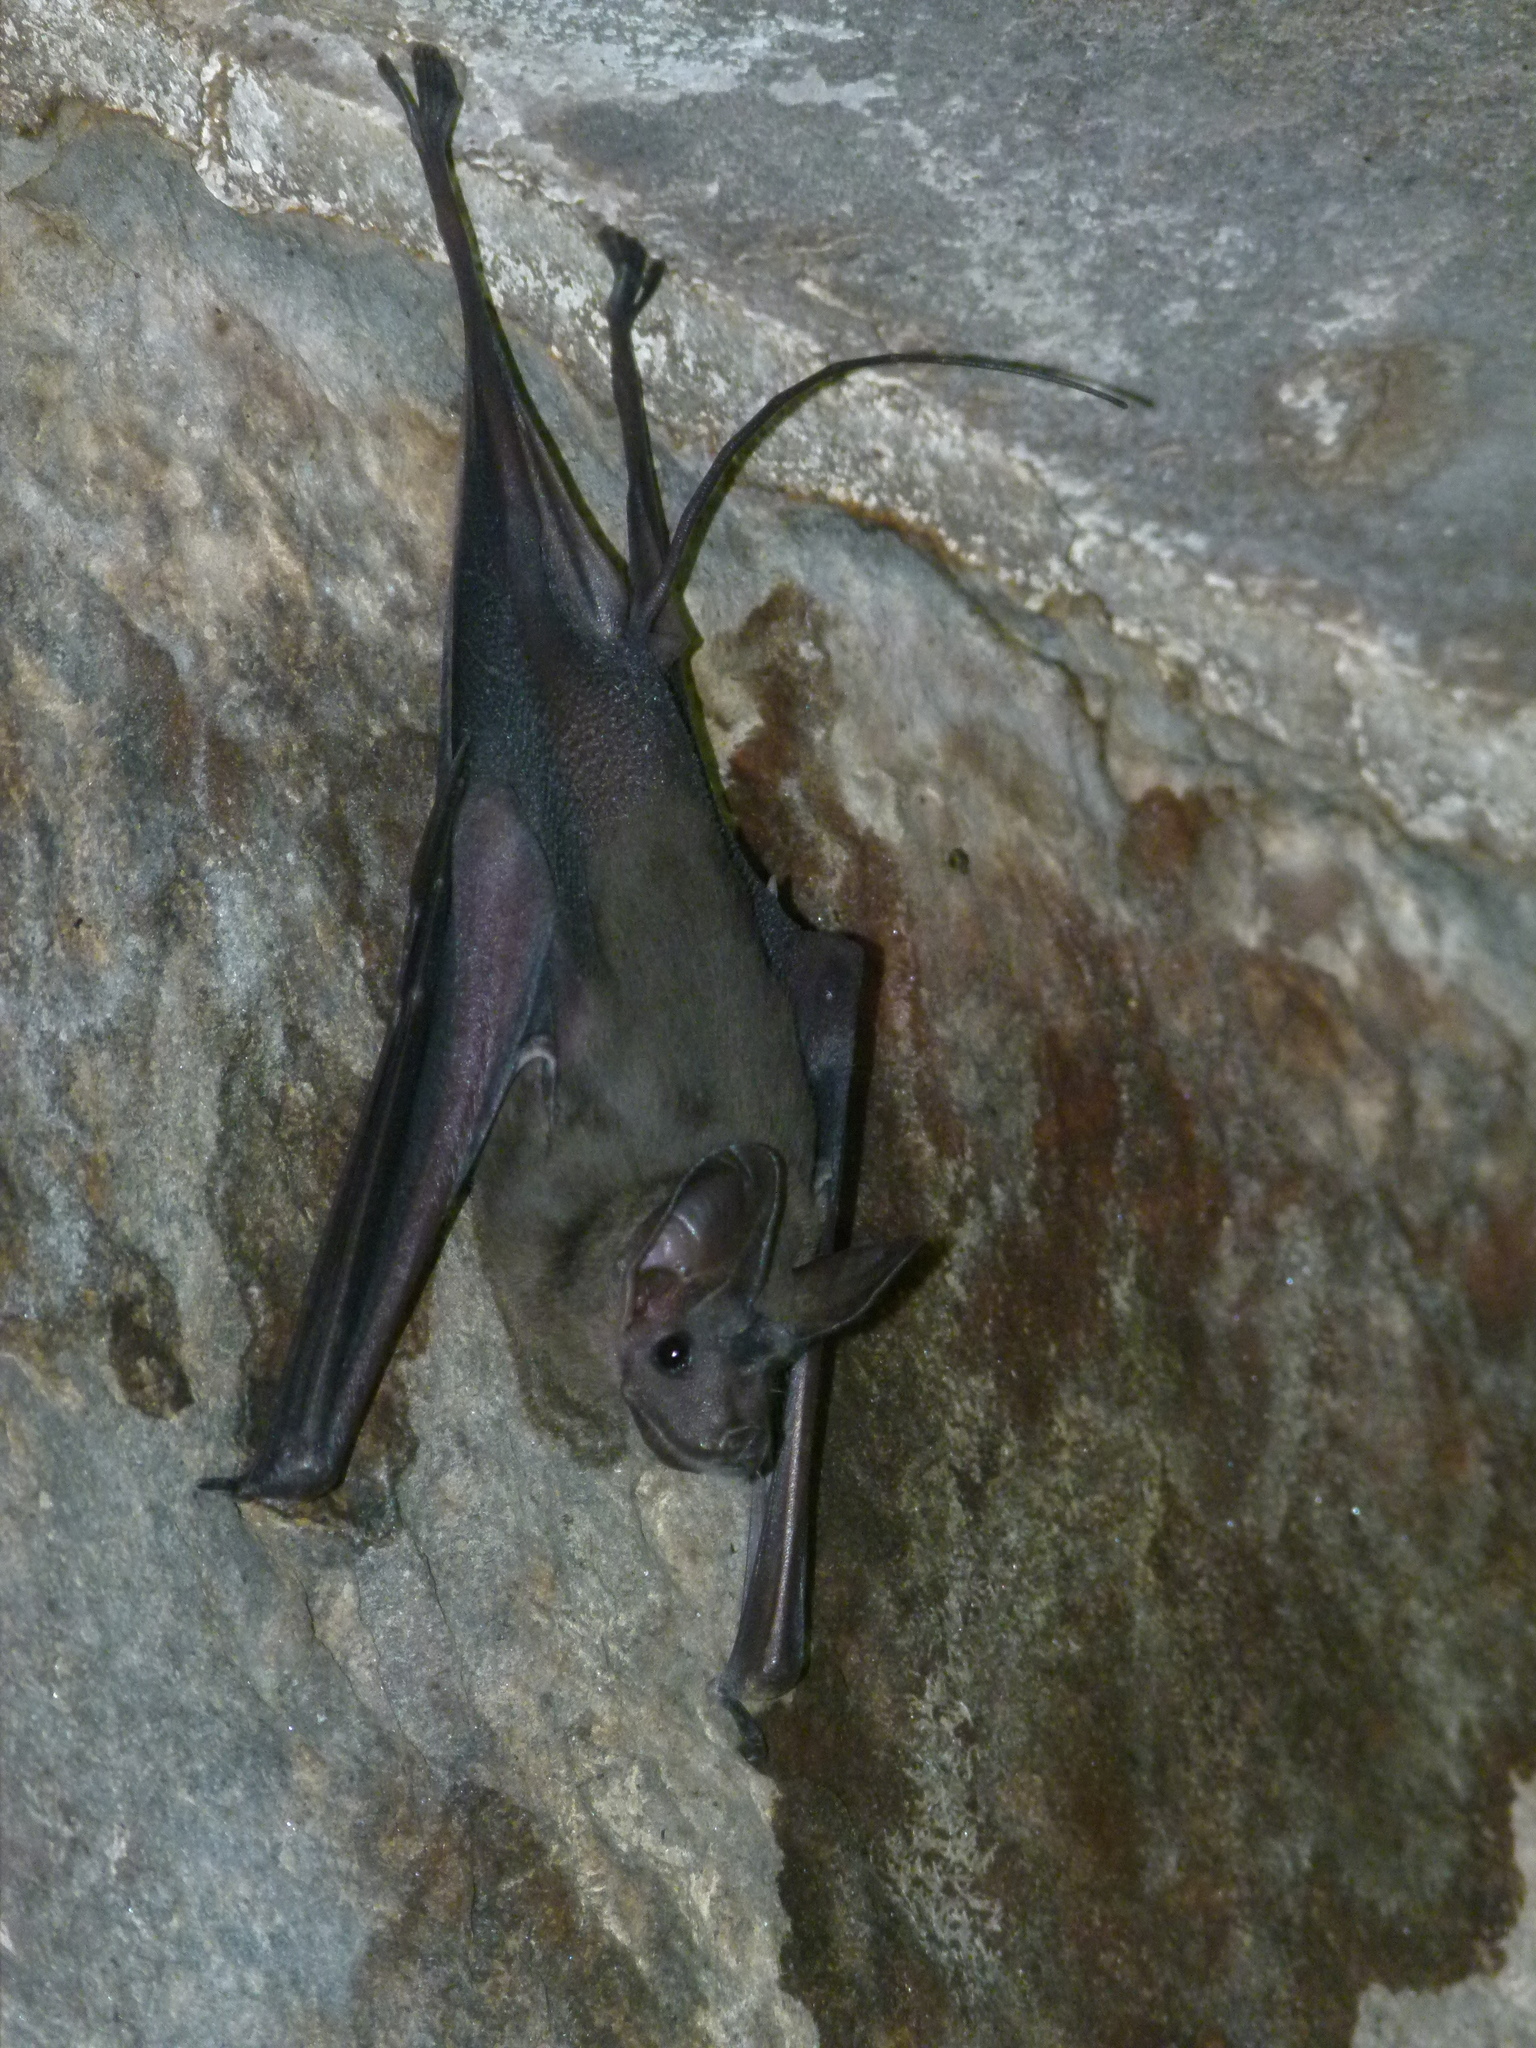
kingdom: Animalia
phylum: Chordata
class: Mammalia
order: Chiroptera
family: Rhinopomatidae
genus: Rhinopoma
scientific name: Rhinopoma hardwickii
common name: Lesser mouse-tailed bat
